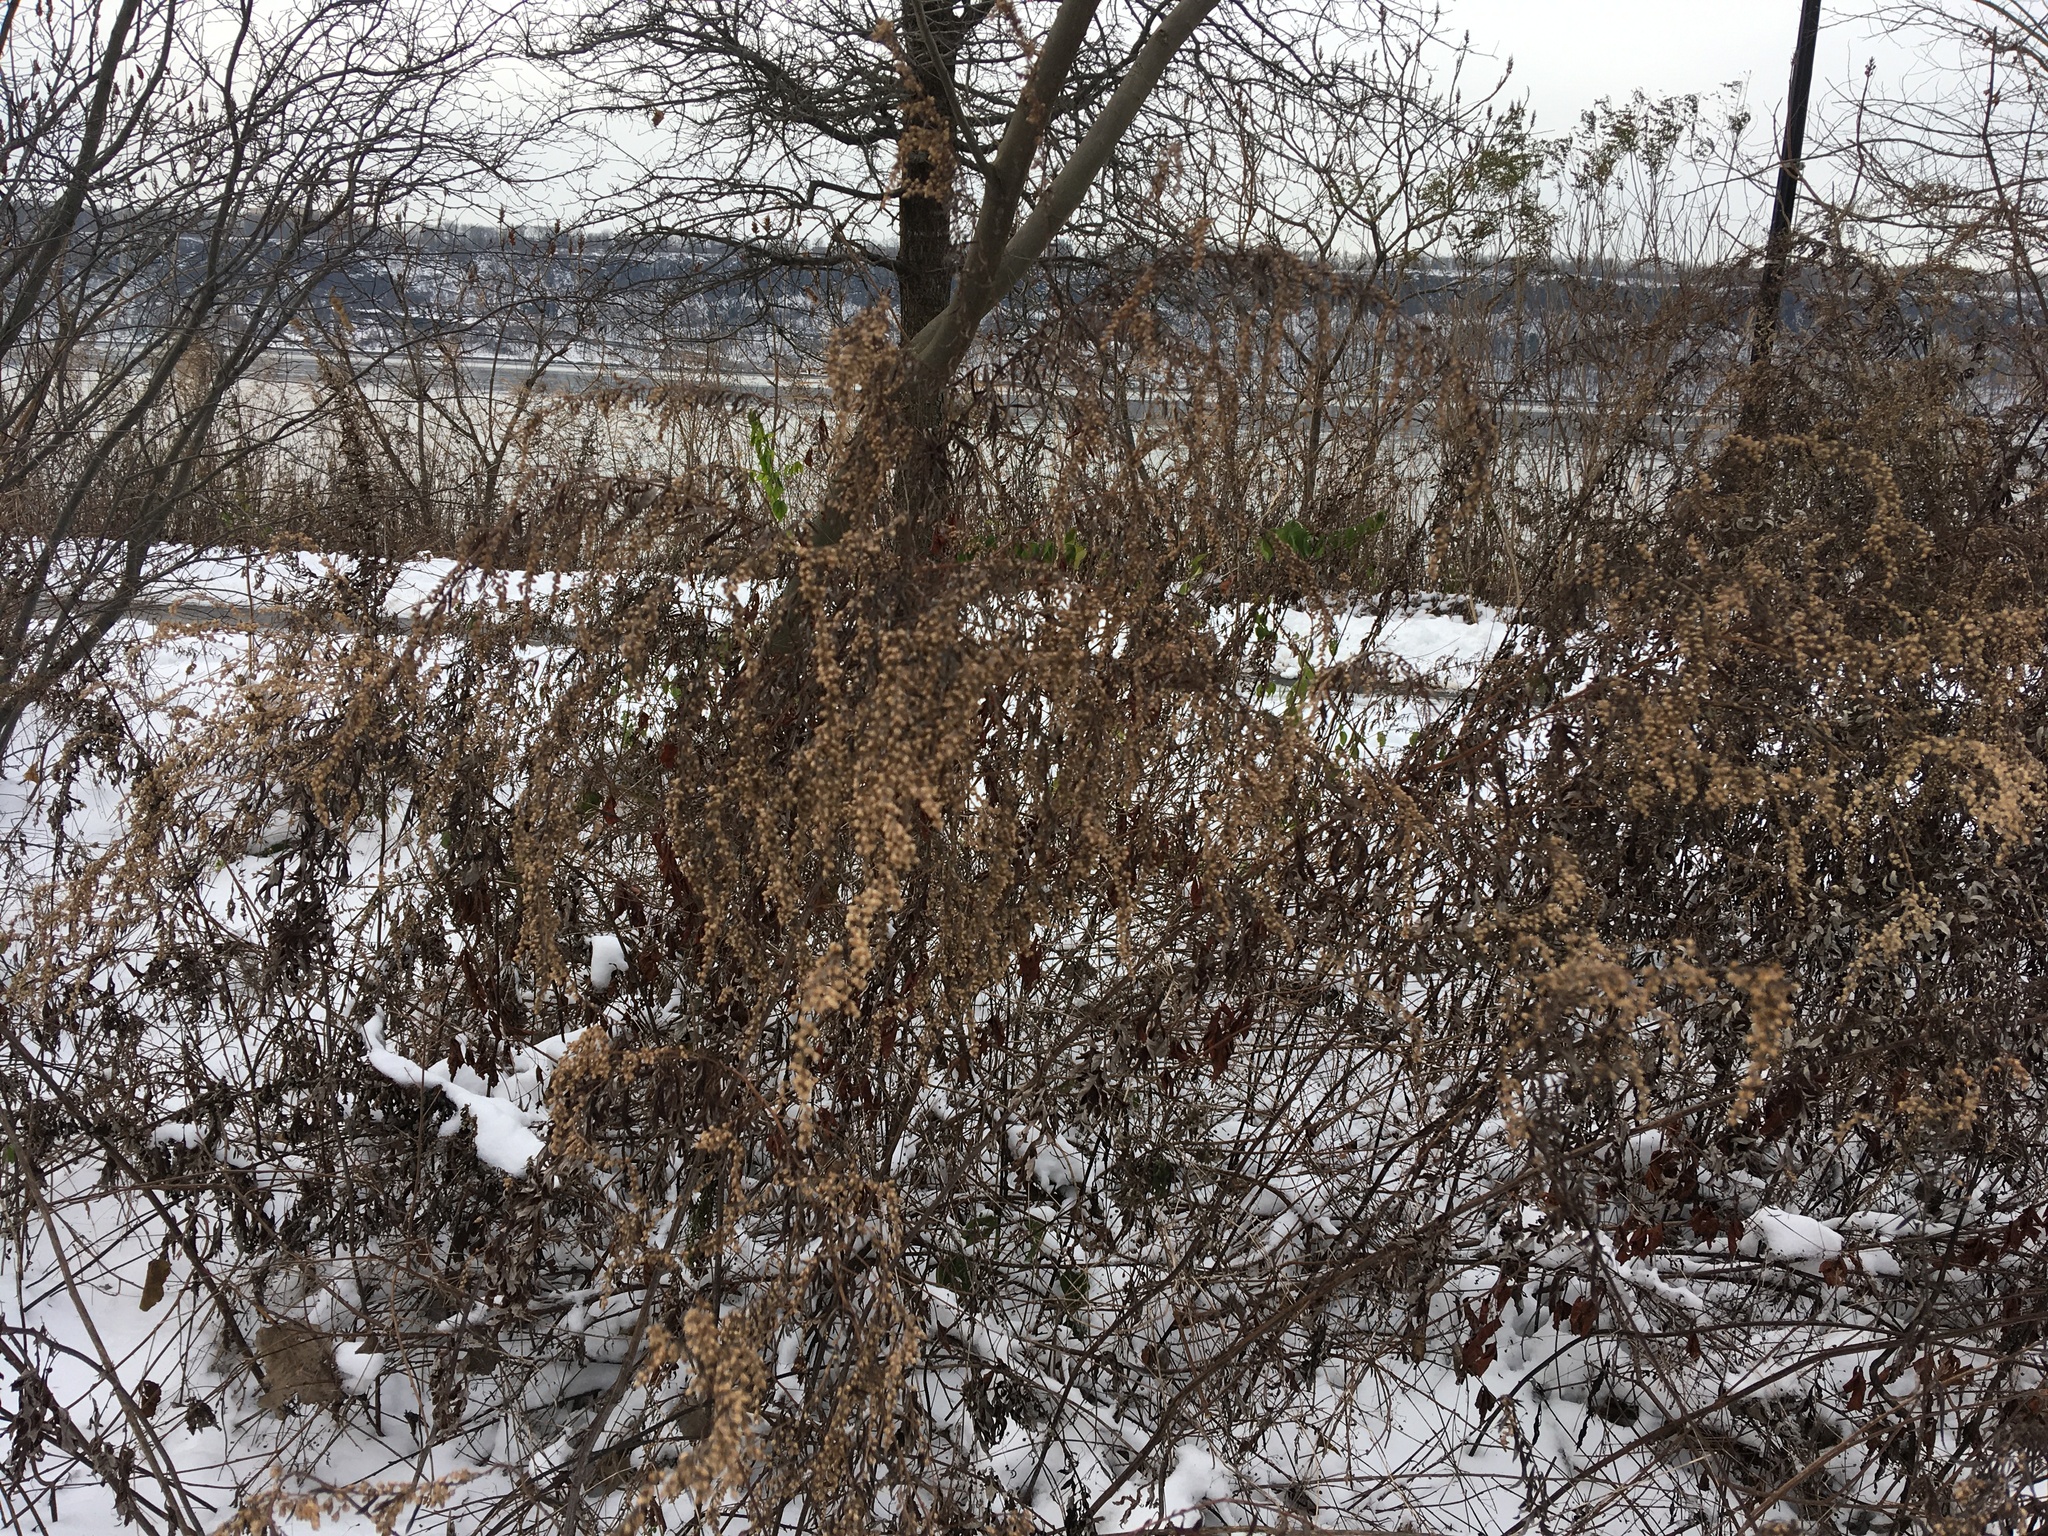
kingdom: Plantae
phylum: Tracheophyta
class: Magnoliopsida
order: Asterales
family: Asteraceae
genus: Artemisia
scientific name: Artemisia vulgaris
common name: Mugwort
